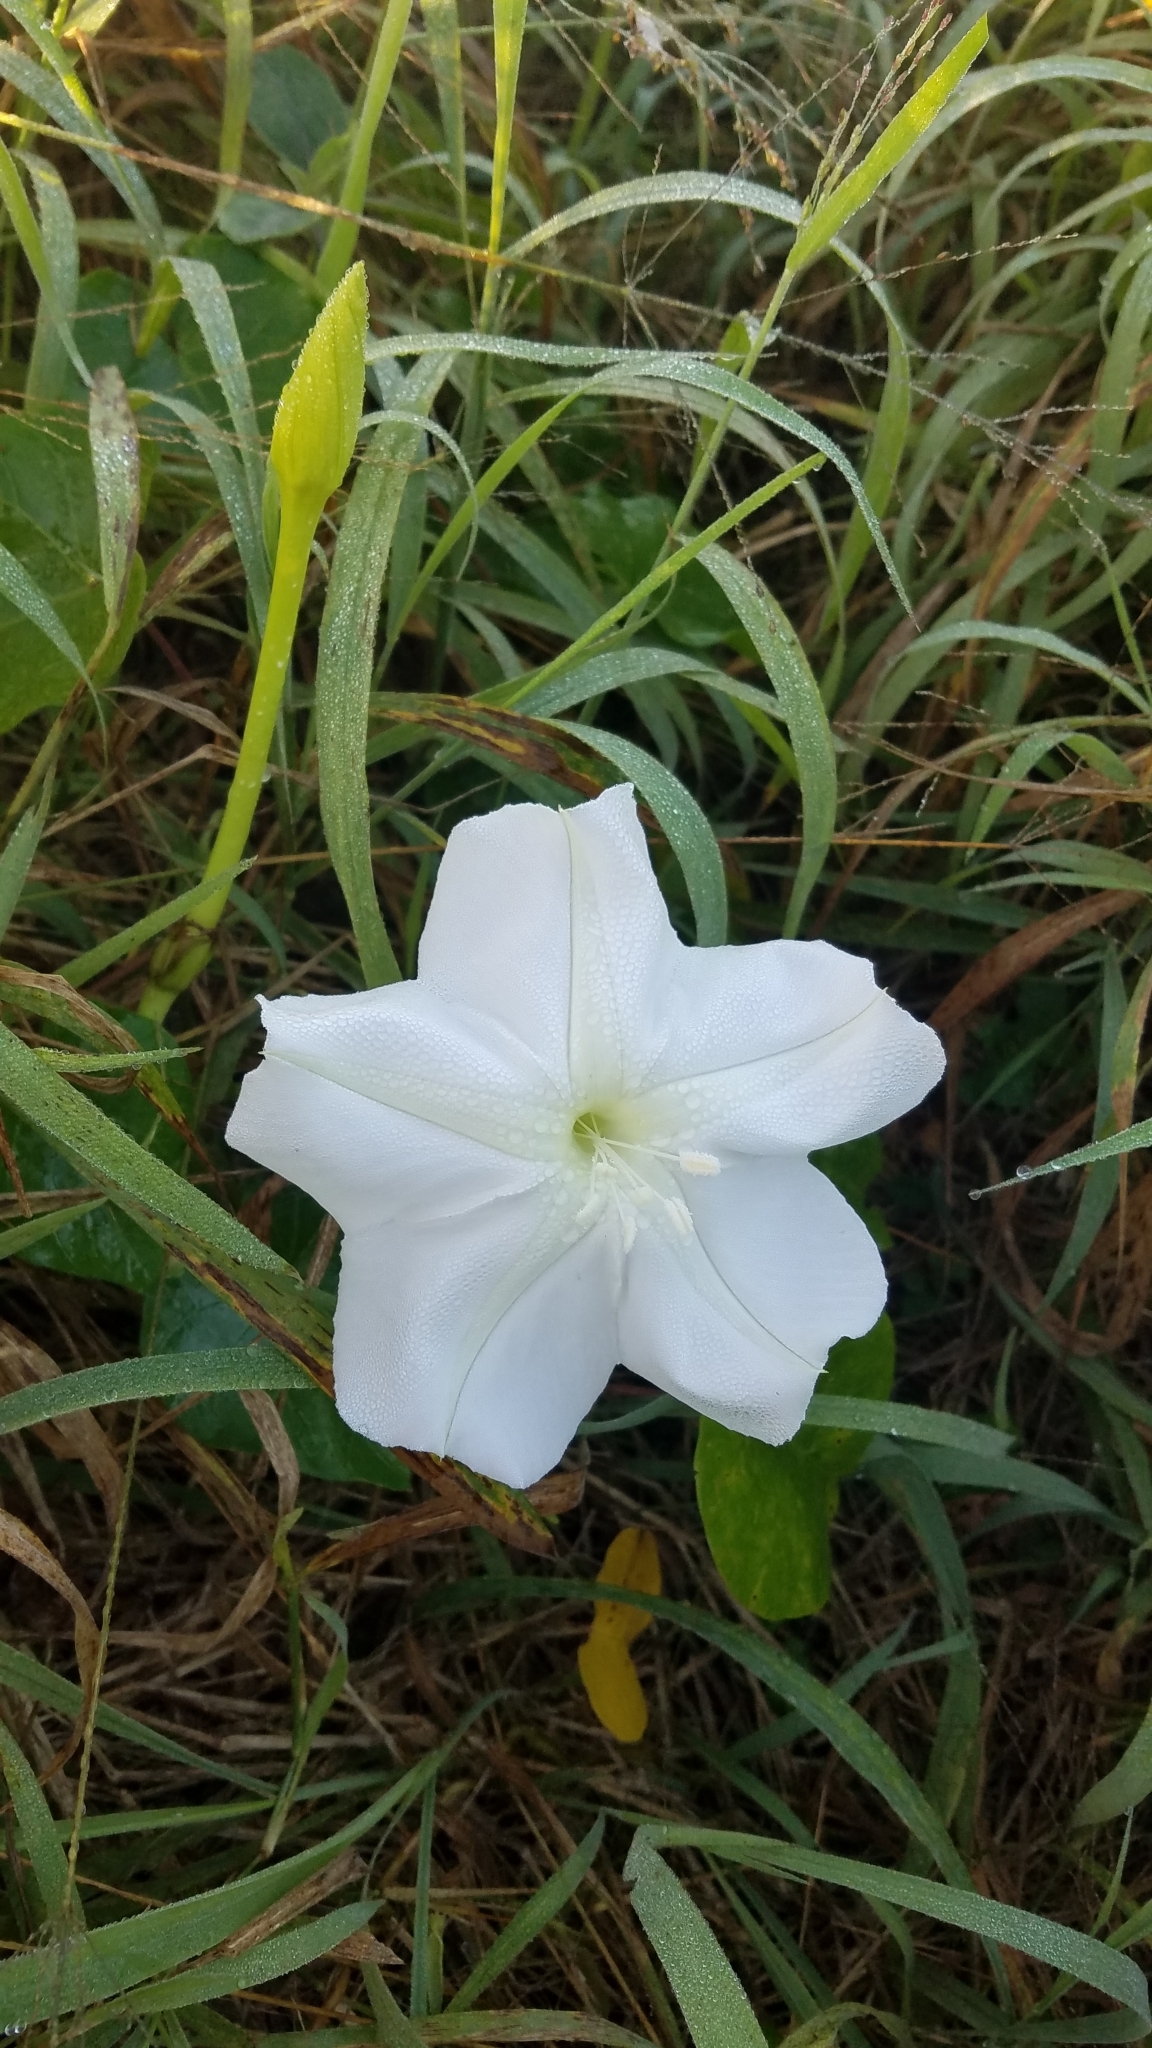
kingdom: Plantae
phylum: Tracheophyta
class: Magnoliopsida
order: Solanales
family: Convolvulaceae
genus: Ipomoea
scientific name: Ipomoea alba
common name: Moonflower
